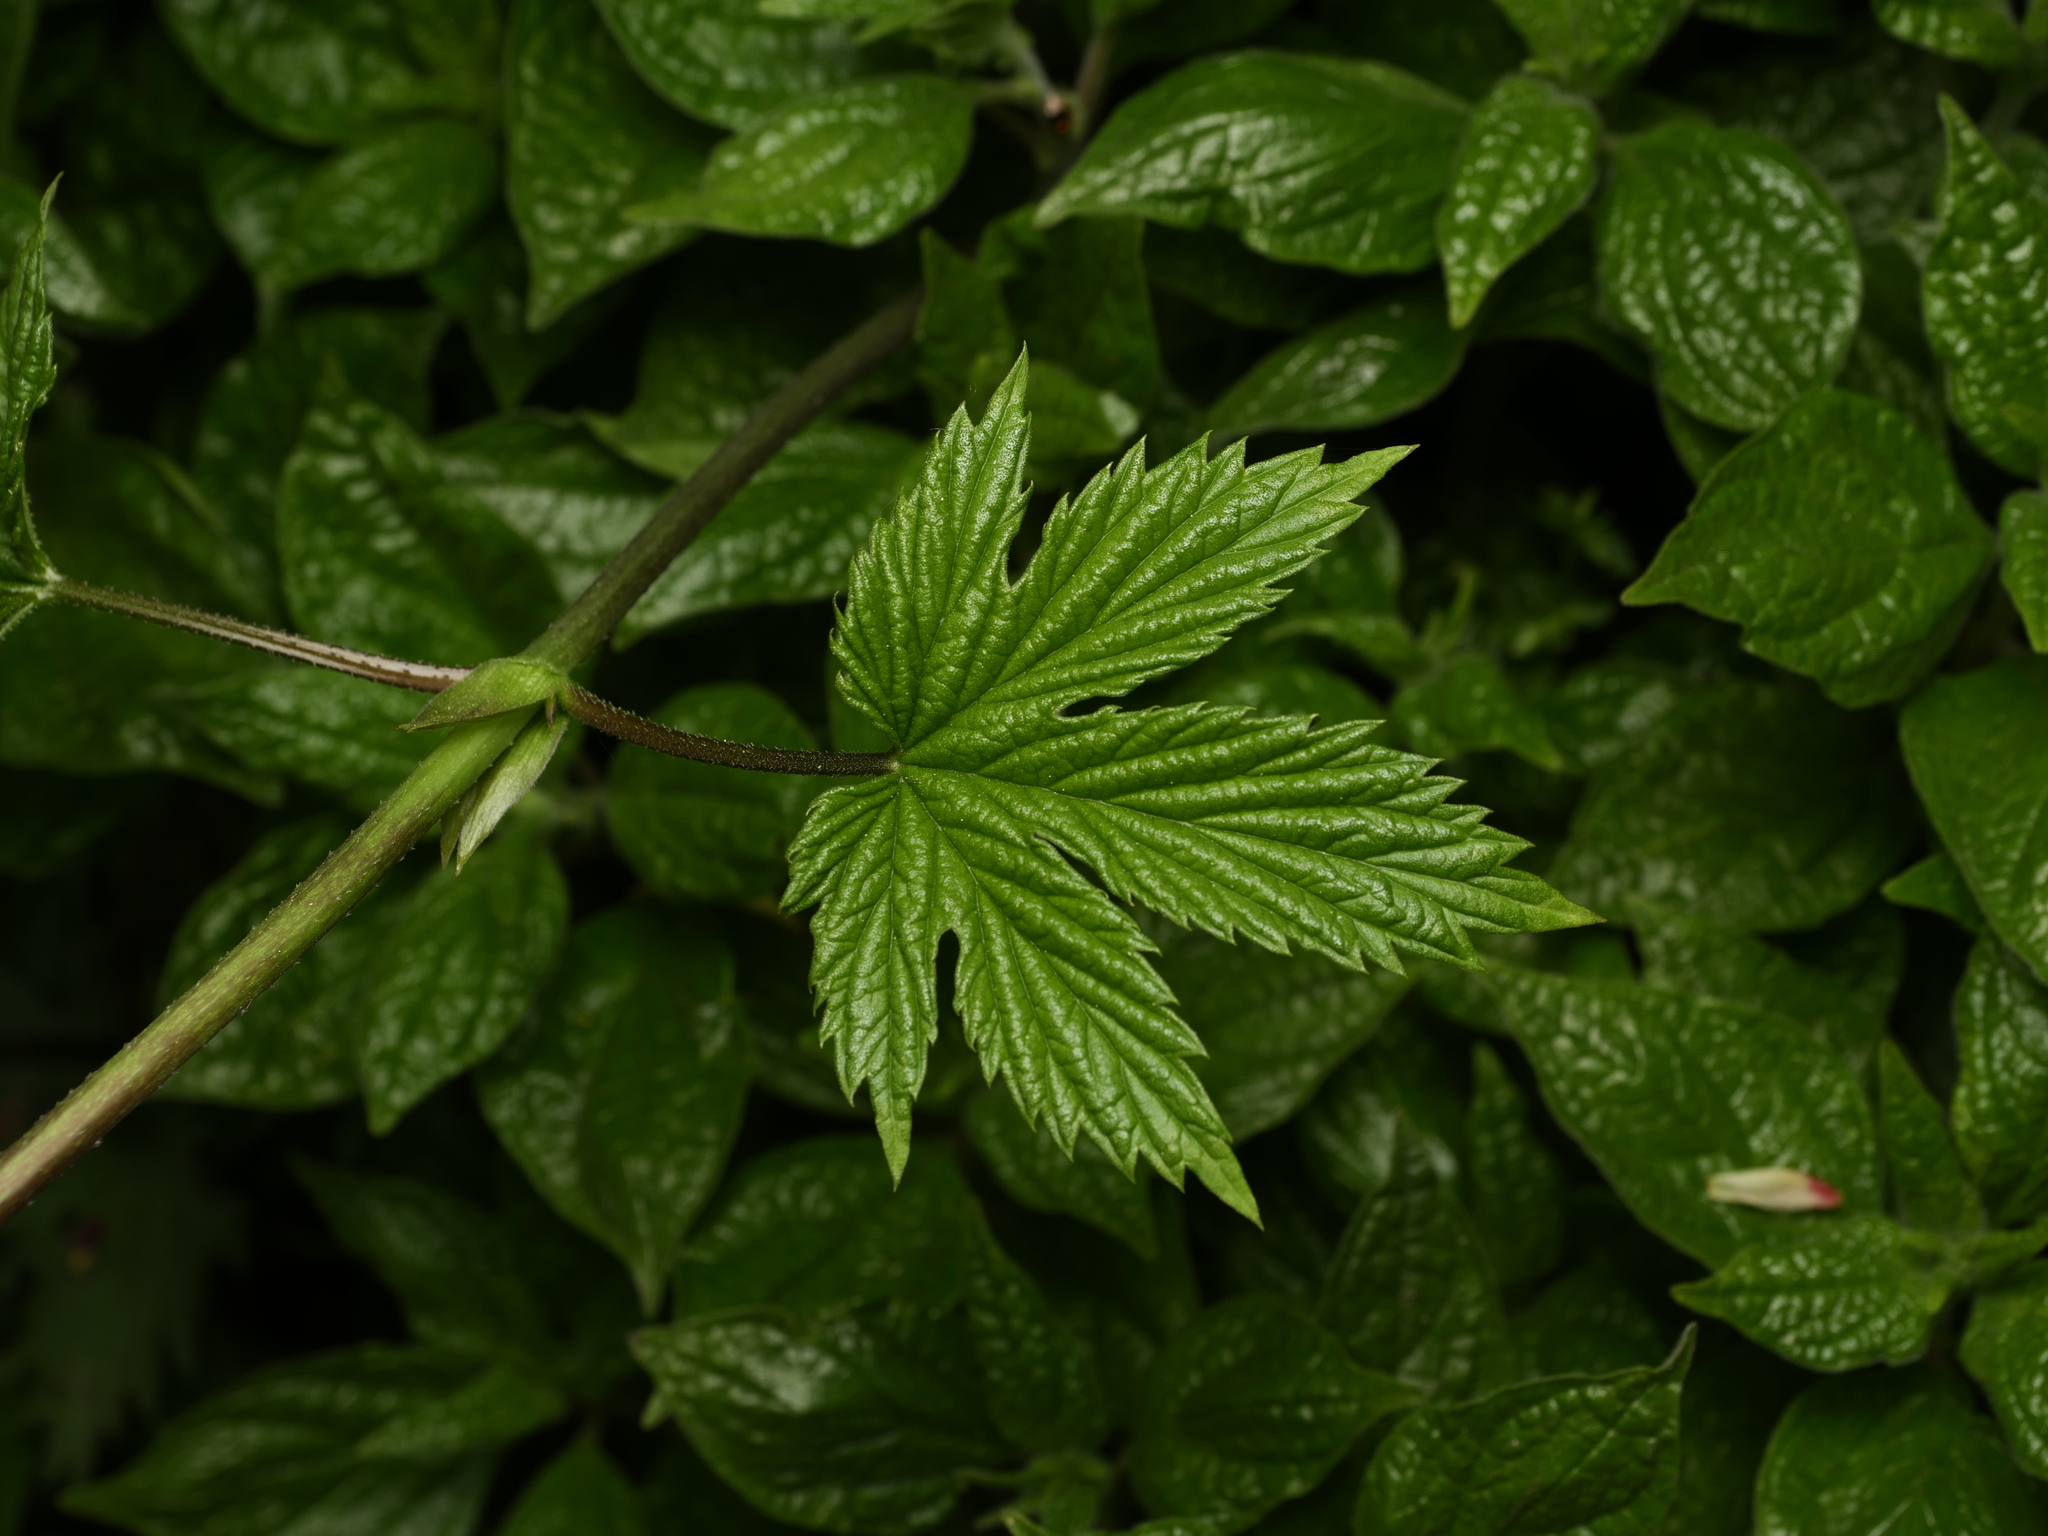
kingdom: Plantae
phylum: Tracheophyta
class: Magnoliopsida
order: Rosales
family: Cannabaceae
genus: Humulus
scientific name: Humulus lupulus
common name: Hop
